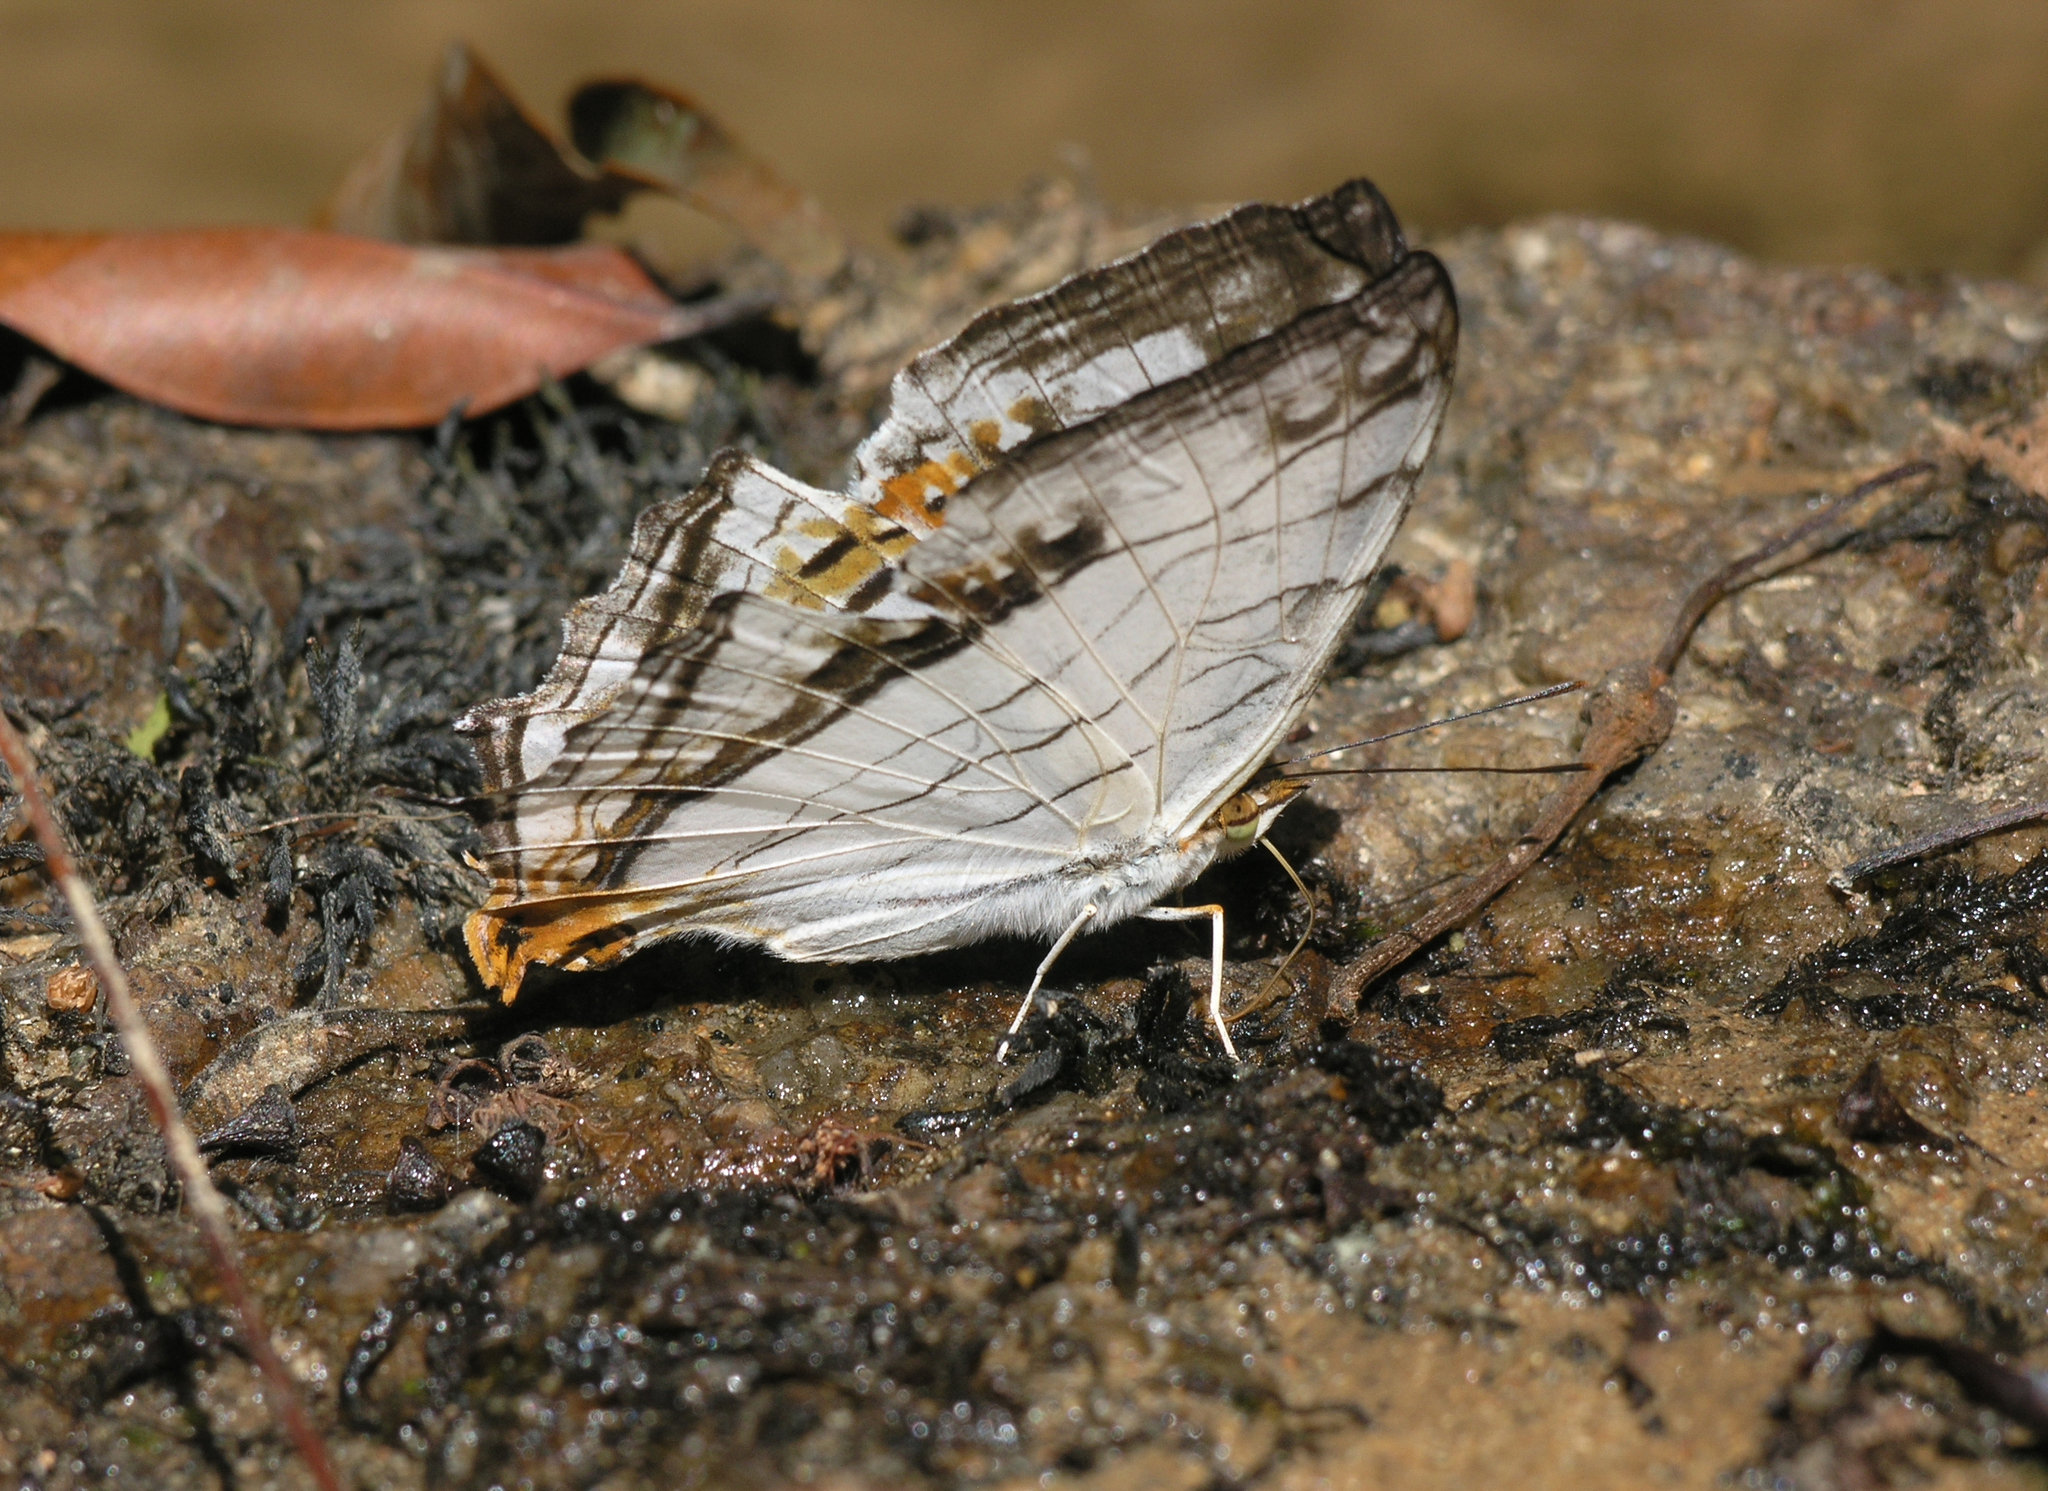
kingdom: Animalia
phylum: Arthropoda
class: Insecta
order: Lepidoptera
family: Nymphalidae
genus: Cyrestis
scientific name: Cyrestis thyodamas
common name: Common mapwing
